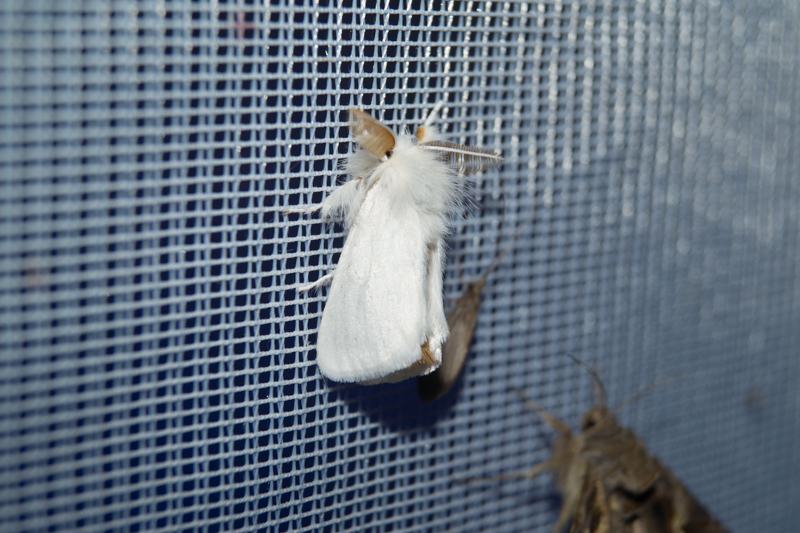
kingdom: Animalia
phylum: Arthropoda
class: Insecta
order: Lepidoptera
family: Erebidae
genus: Euproctis
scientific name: Euproctis chrysorrhoea
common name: Brown-tail
